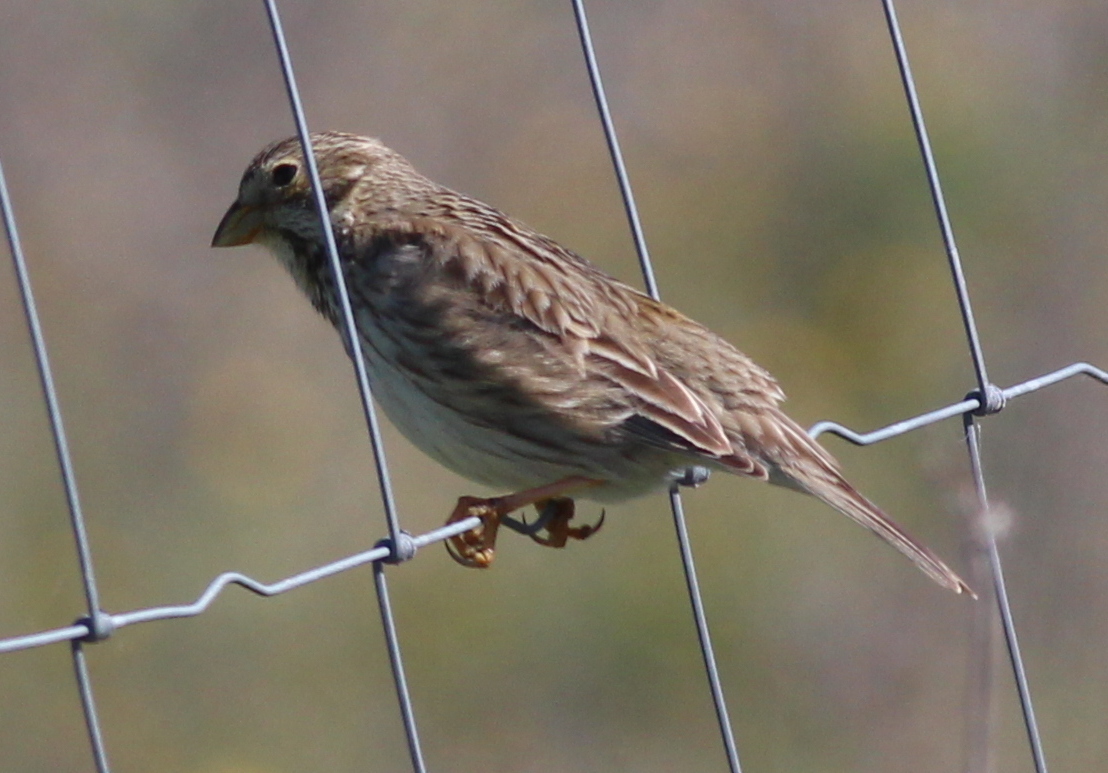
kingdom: Animalia
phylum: Chordata
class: Aves
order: Passeriformes
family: Emberizidae
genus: Emberiza
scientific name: Emberiza calandra
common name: Corn bunting
